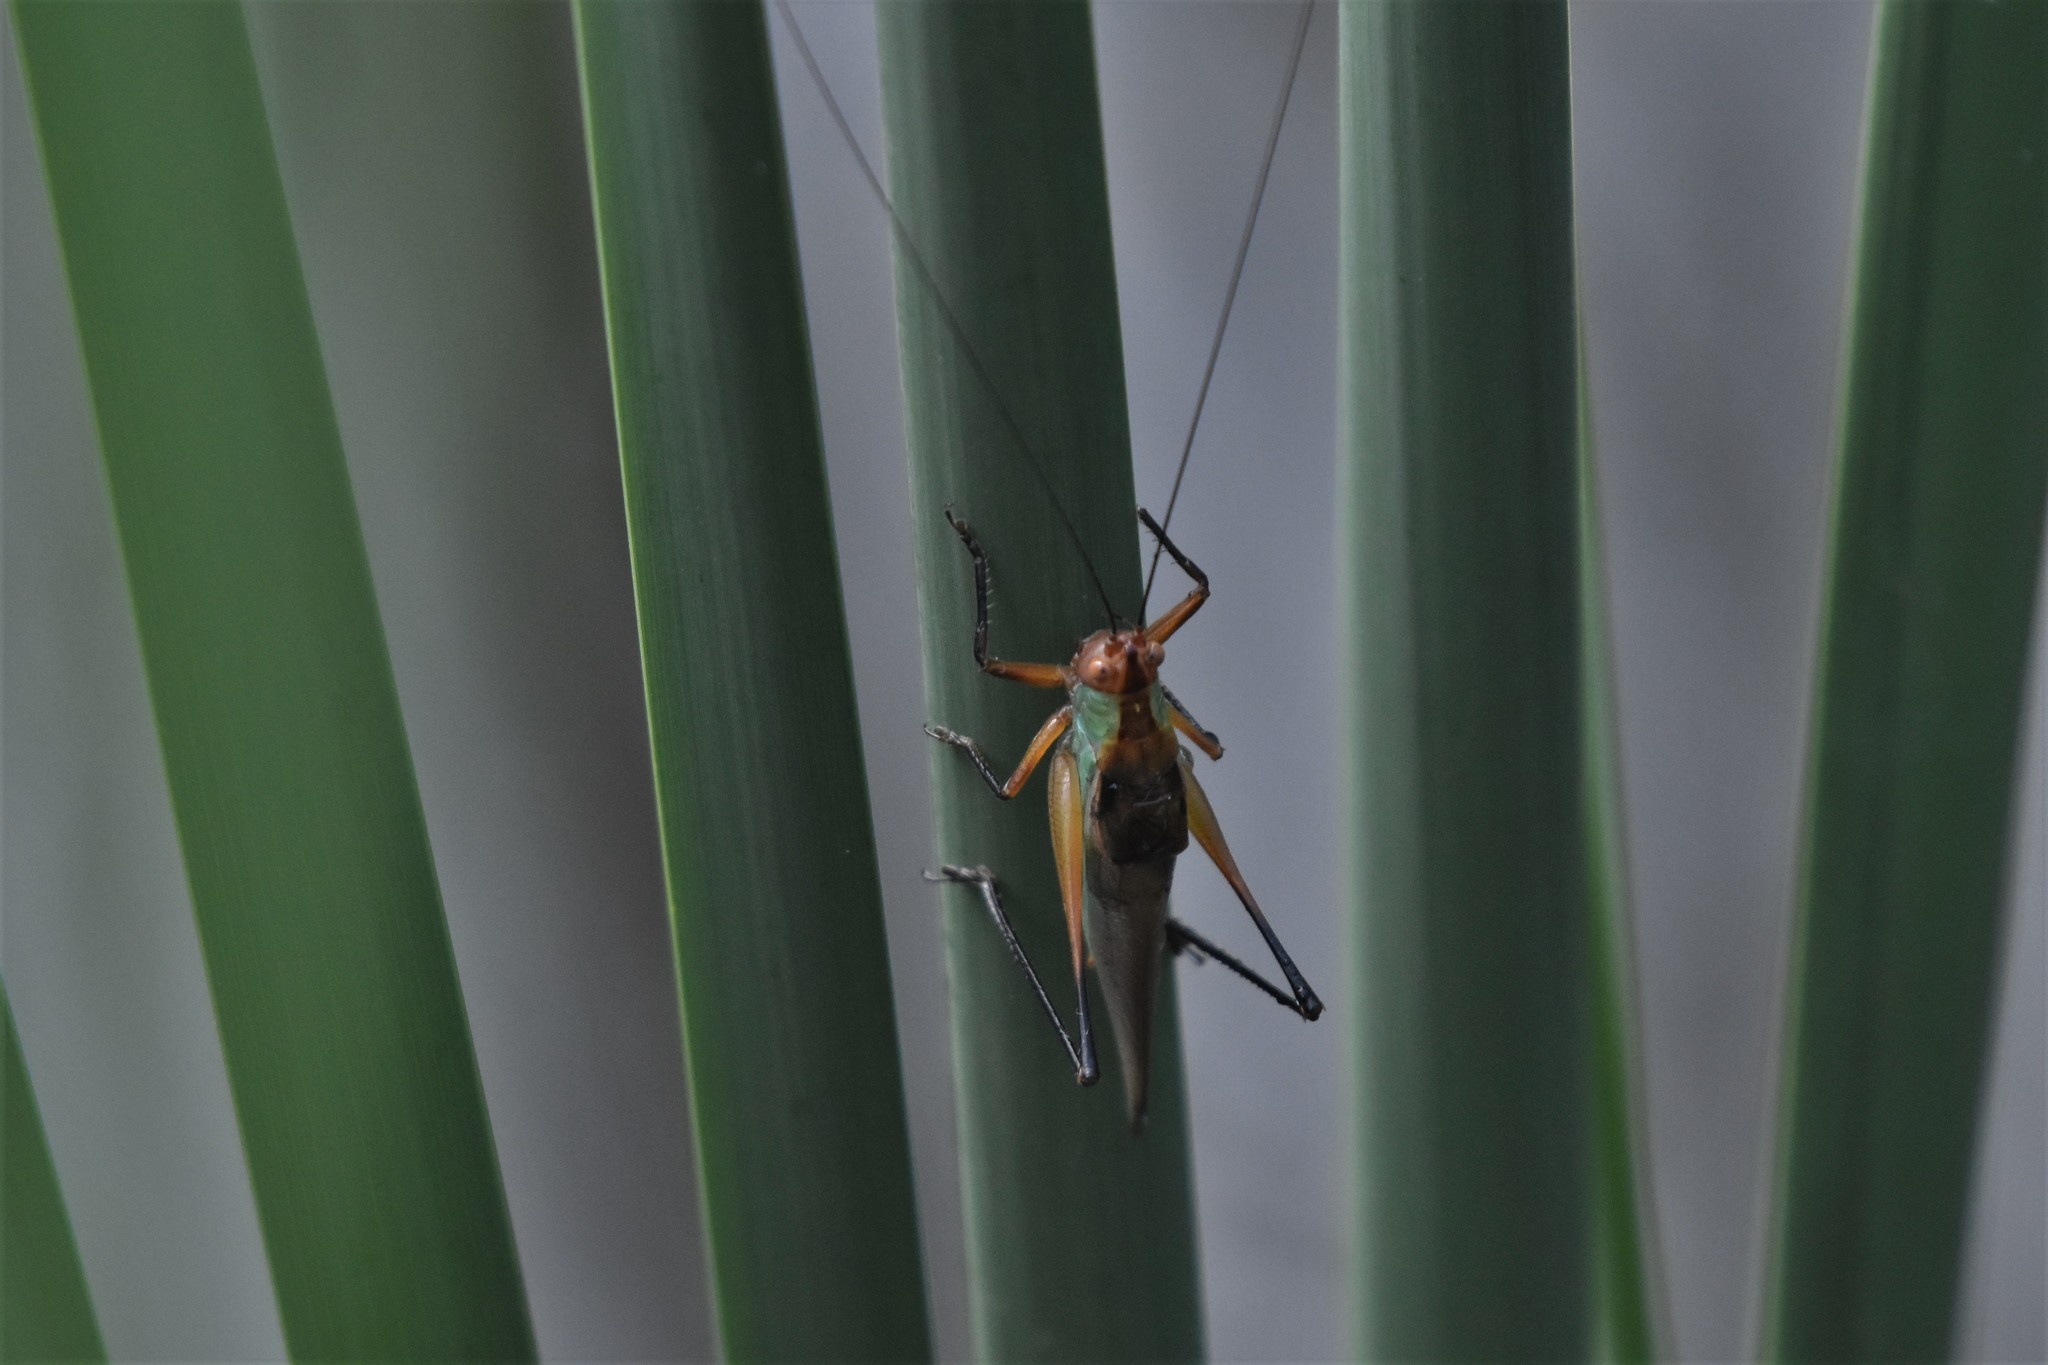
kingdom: Animalia
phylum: Arthropoda
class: Insecta
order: Orthoptera
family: Tettigoniidae
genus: Orchelimum
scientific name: Orchelimum nigripes
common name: Black-legged meadow katydid
